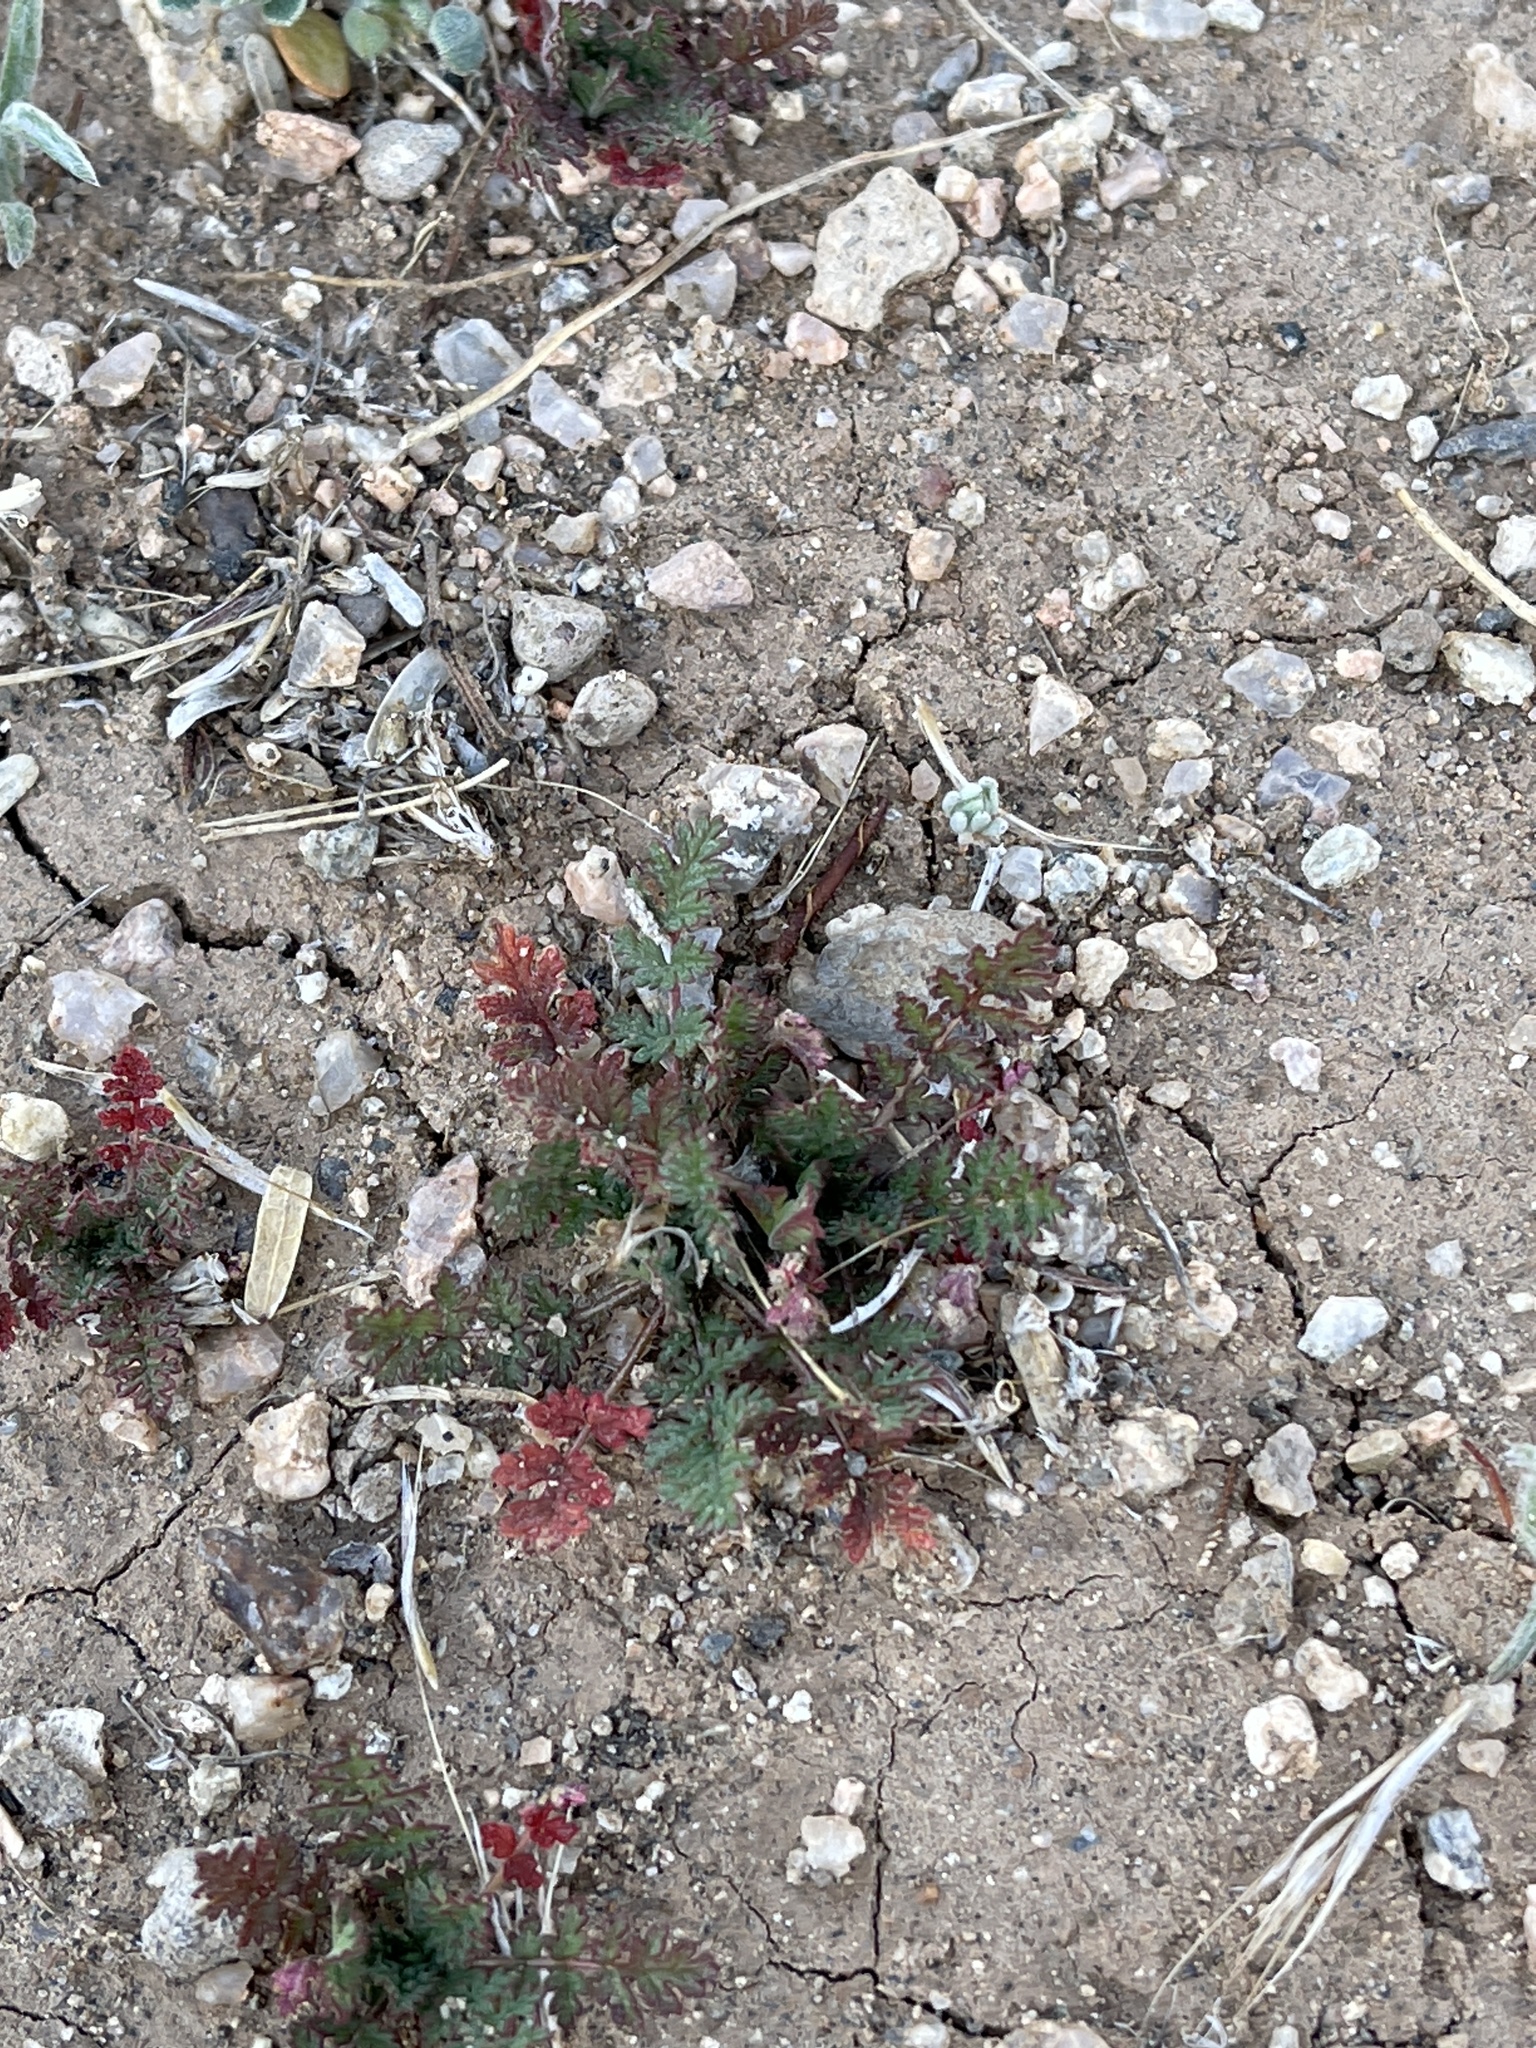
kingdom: Plantae
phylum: Tracheophyta
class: Magnoliopsida
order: Geraniales
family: Geraniaceae
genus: Erodium
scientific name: Erodium cicutarium
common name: Common stork's-bill
